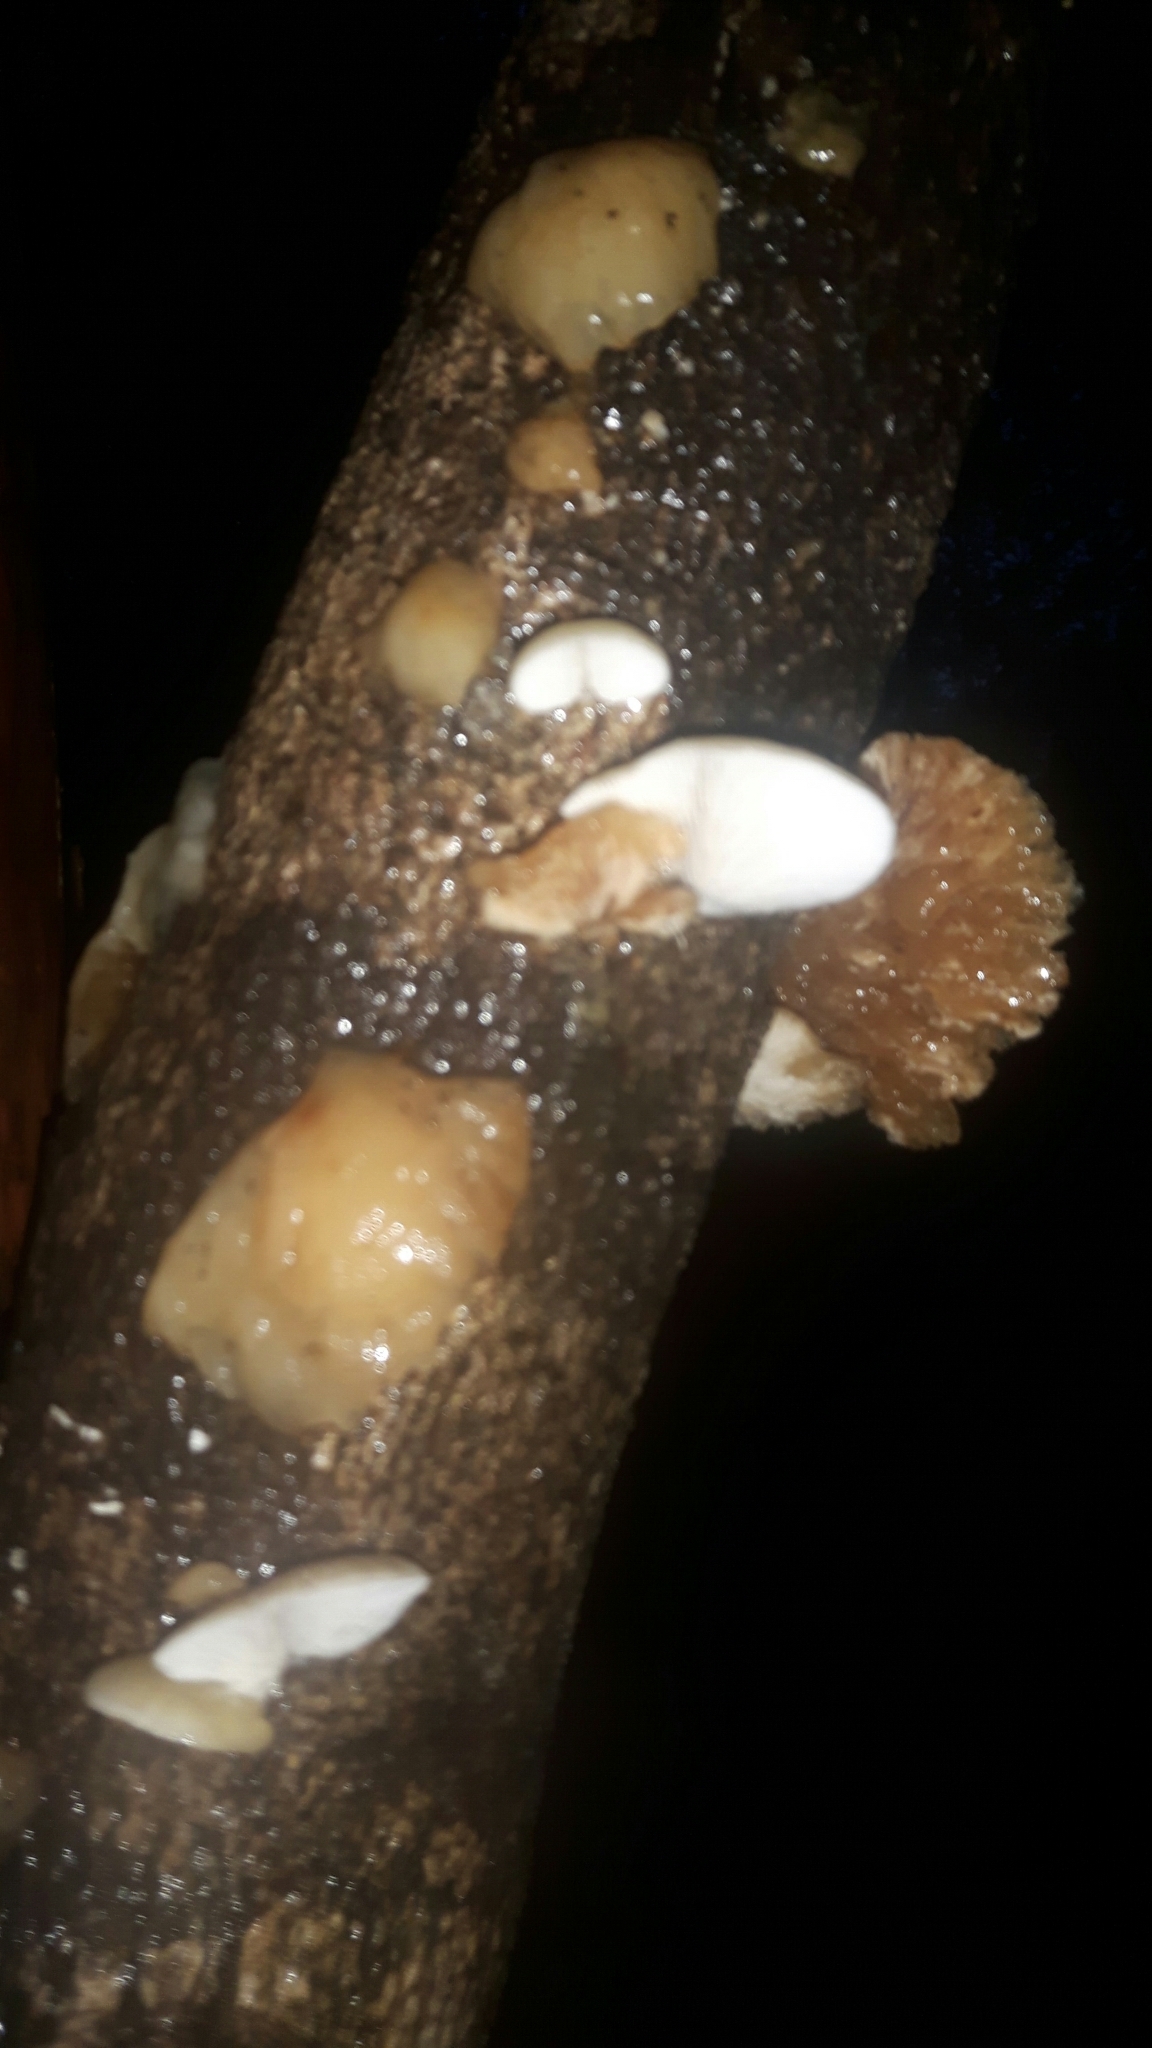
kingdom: Fungi
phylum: Basidiomycota
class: Agaricomycetes
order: Agaricales
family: Mycenaceae
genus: Panellus
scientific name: Panellus longinquus
